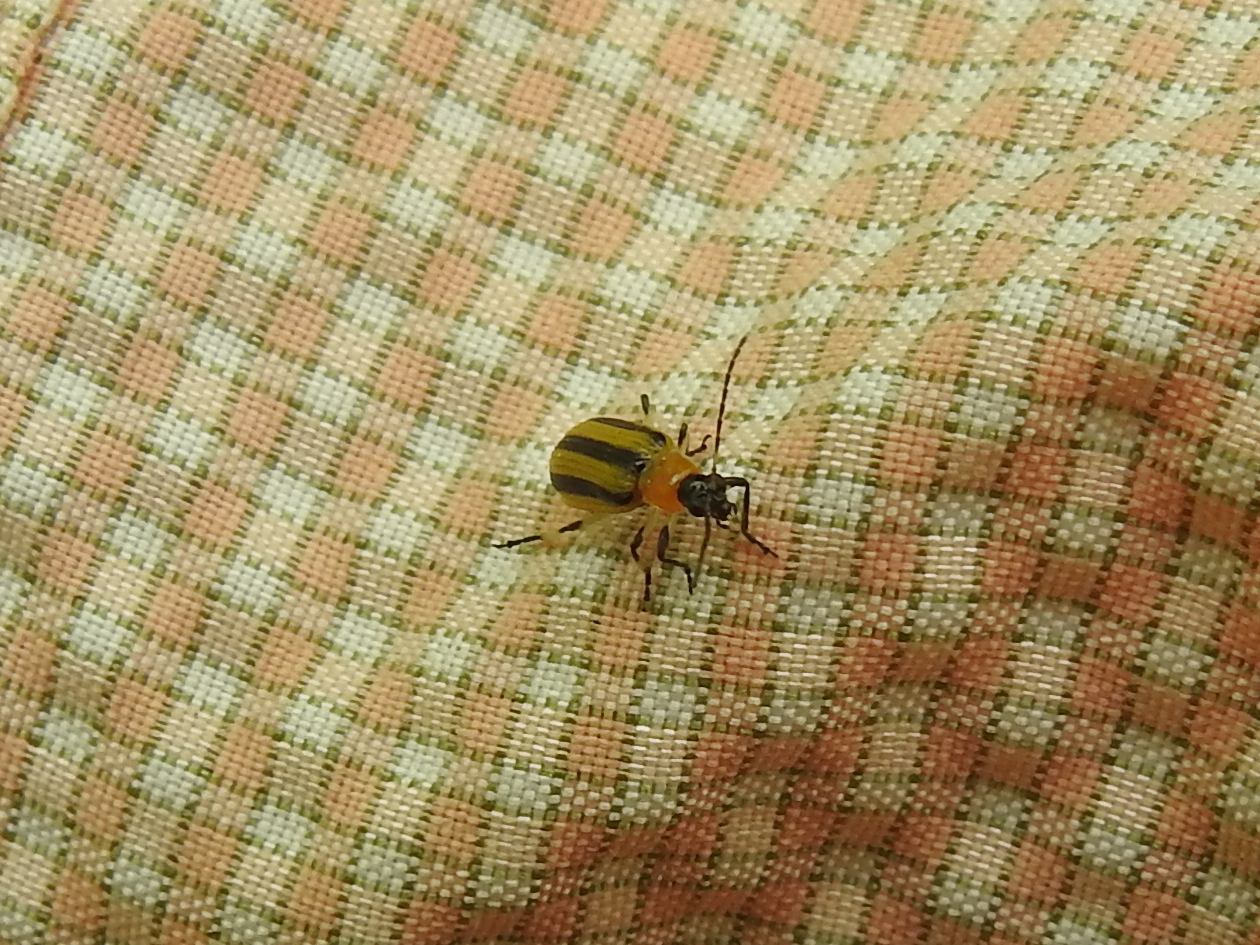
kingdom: Animalia
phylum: Arthropoda
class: Insecta
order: Coleoptera
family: Chrysomelidae
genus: Acalymma
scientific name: Acalymma vittatum
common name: Striped cucumber beetle
